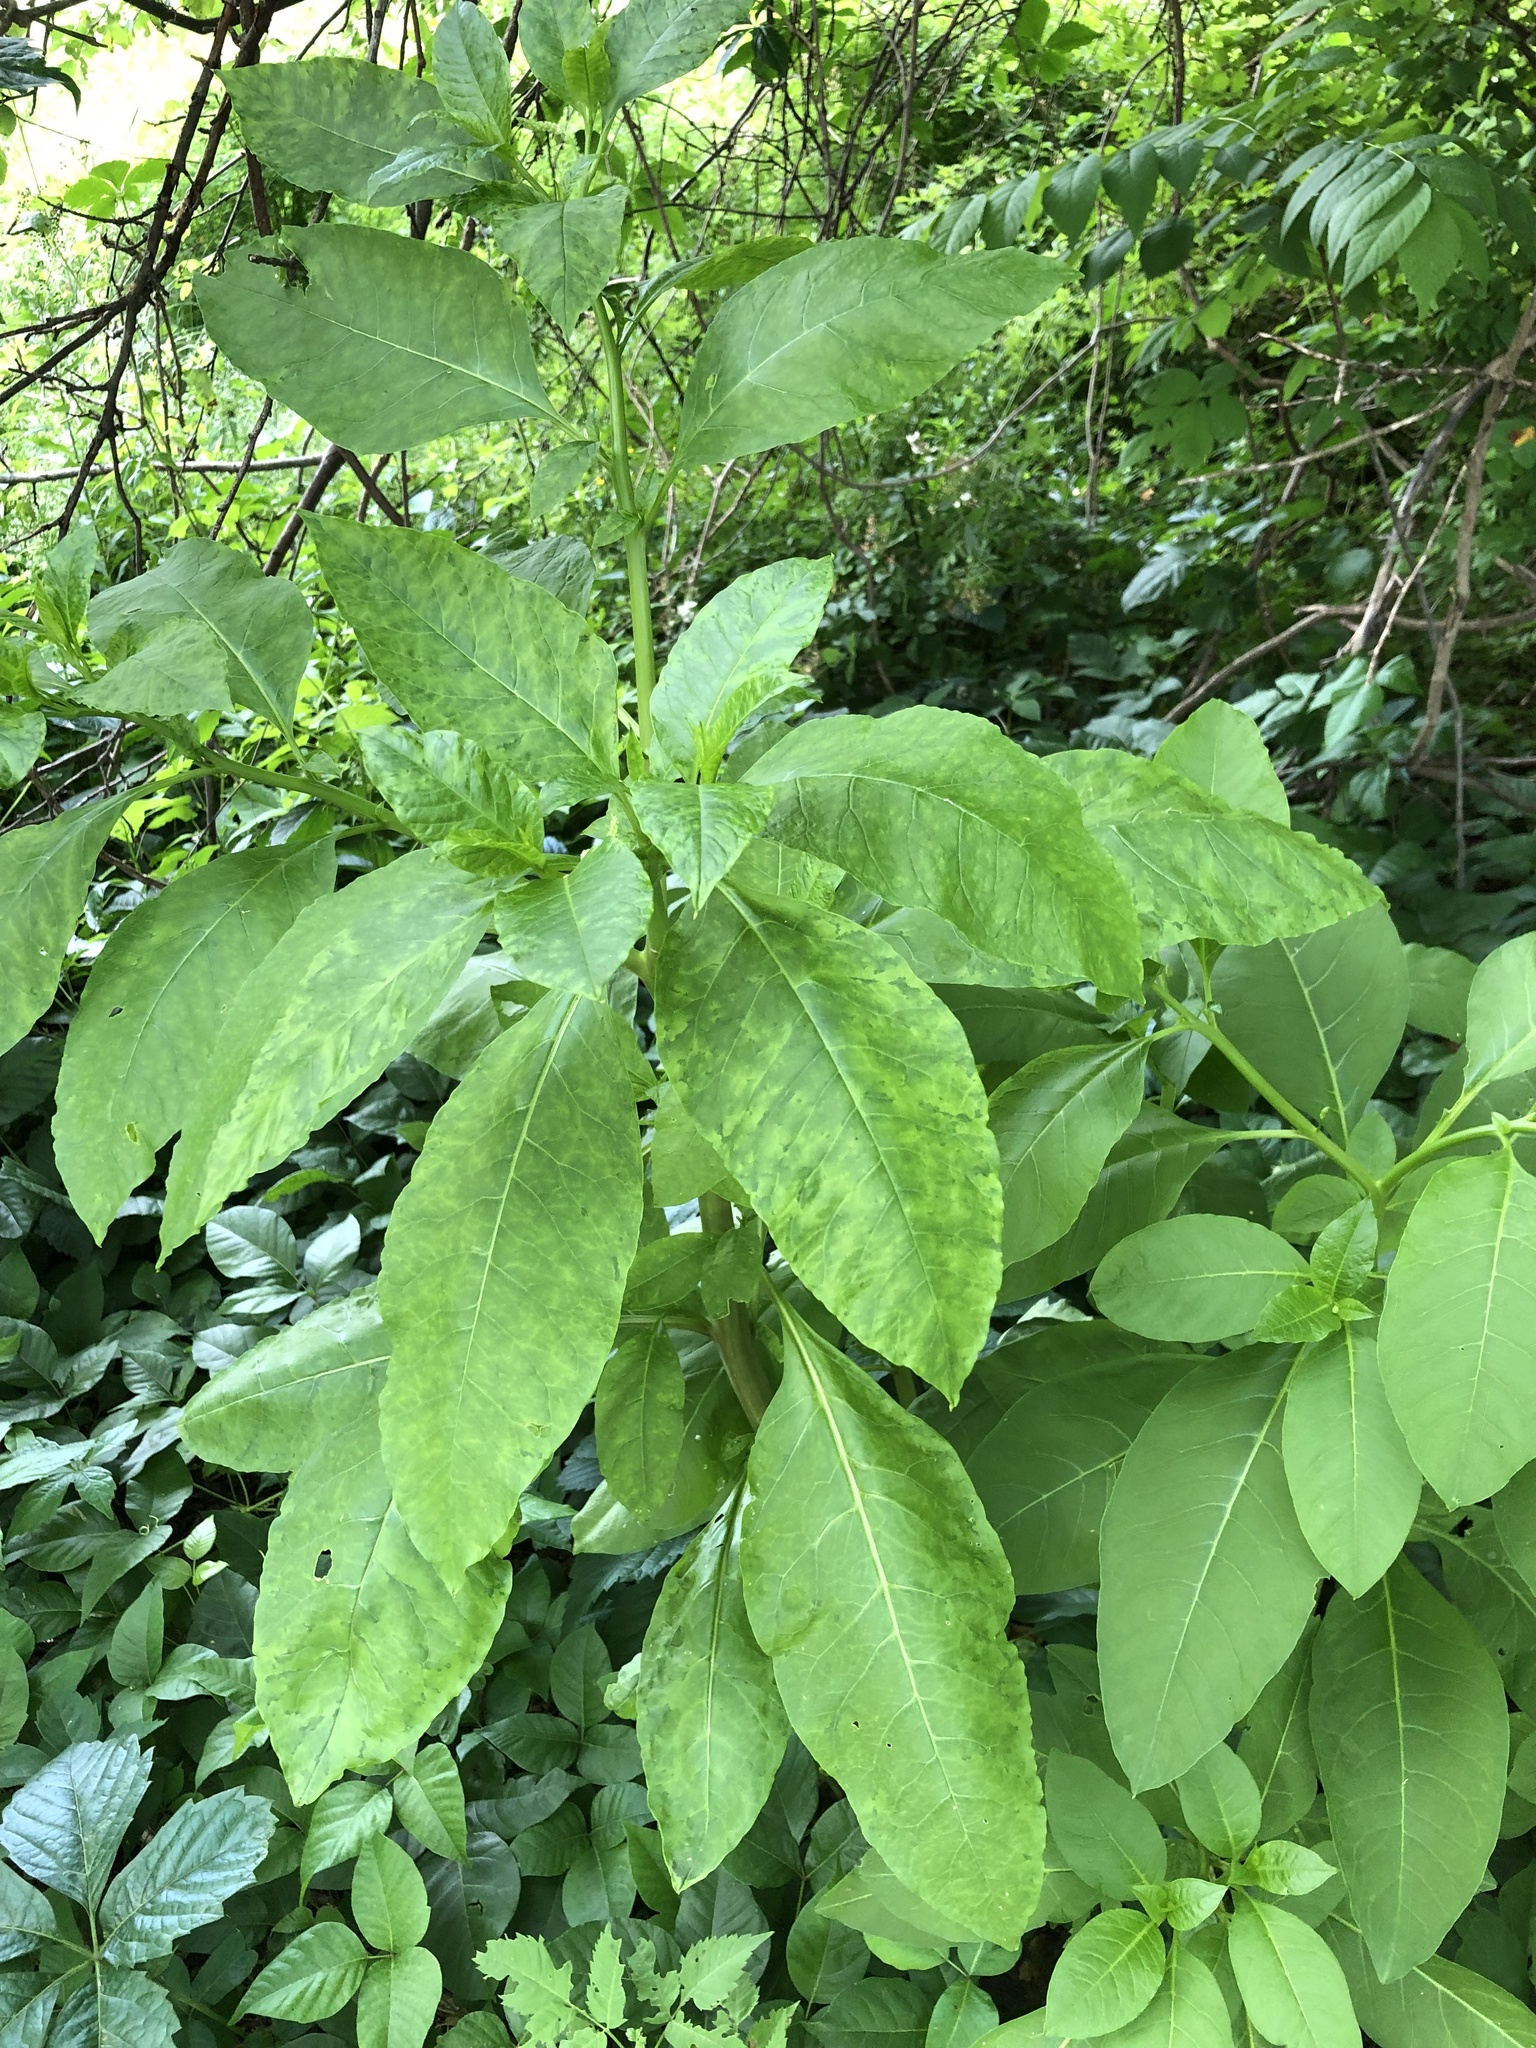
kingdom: Viruses
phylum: Pisuviricota
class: Stelpaviricetes
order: Patatavirales
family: Potyviridae
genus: Potyvirus
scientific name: Potyvirus Pokeweed mosaic virus
